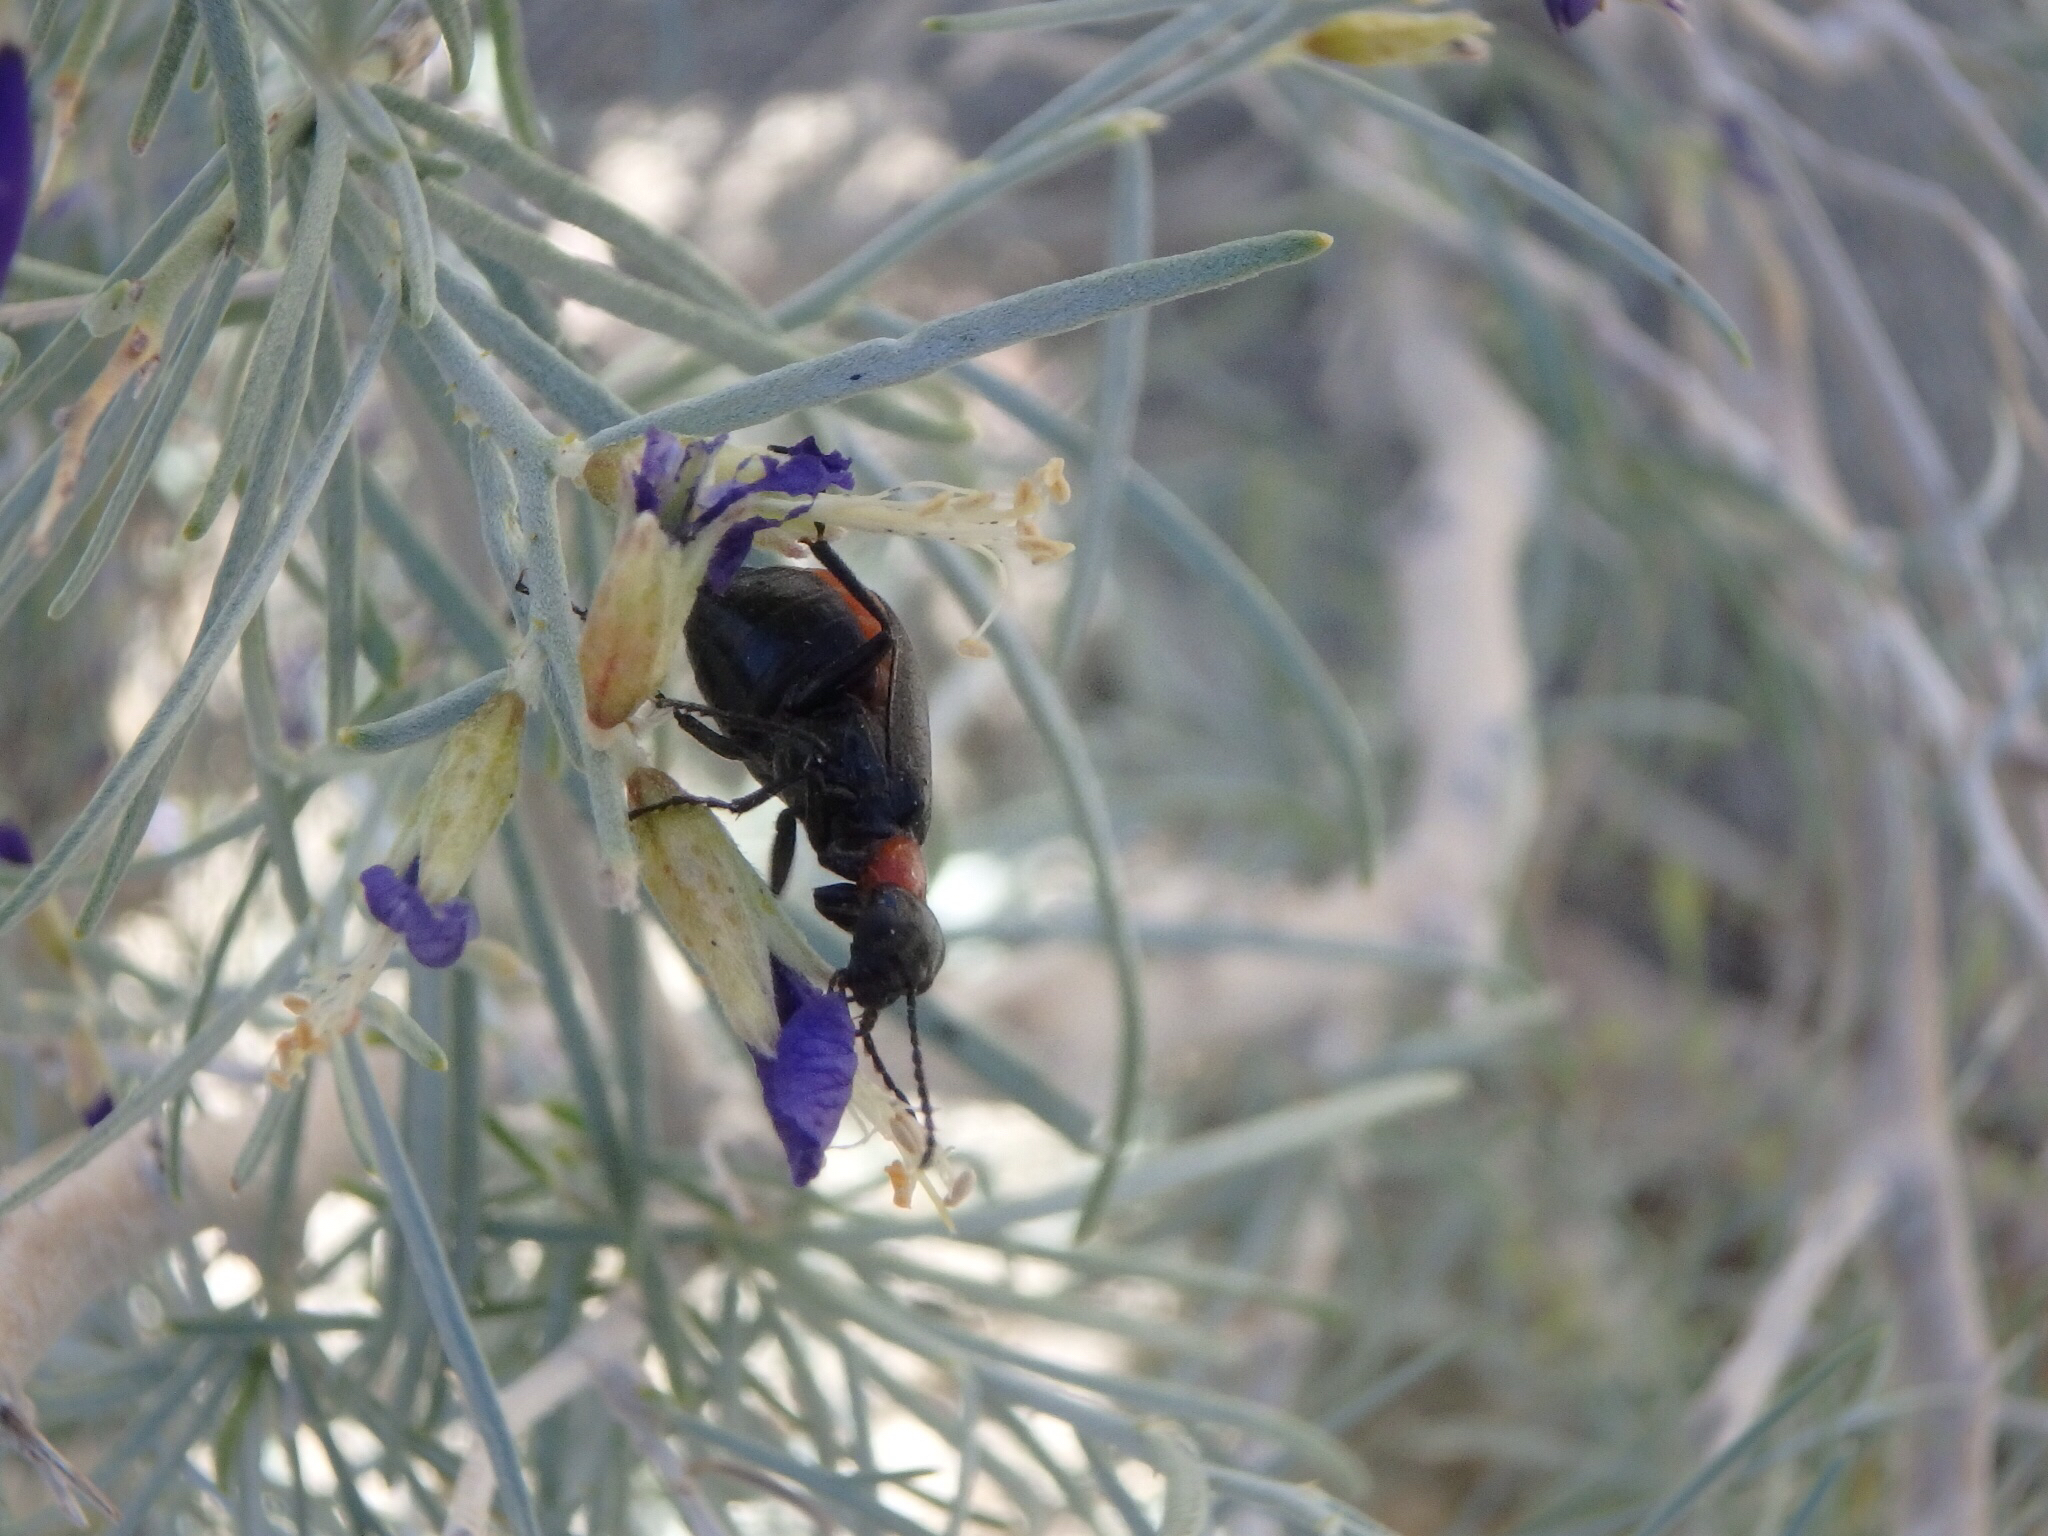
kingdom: Animalia
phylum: Arthropoda
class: Insecta
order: Coleoptera
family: Meloidae
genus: Spastonyx
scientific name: Spastonyx nemognathoides
